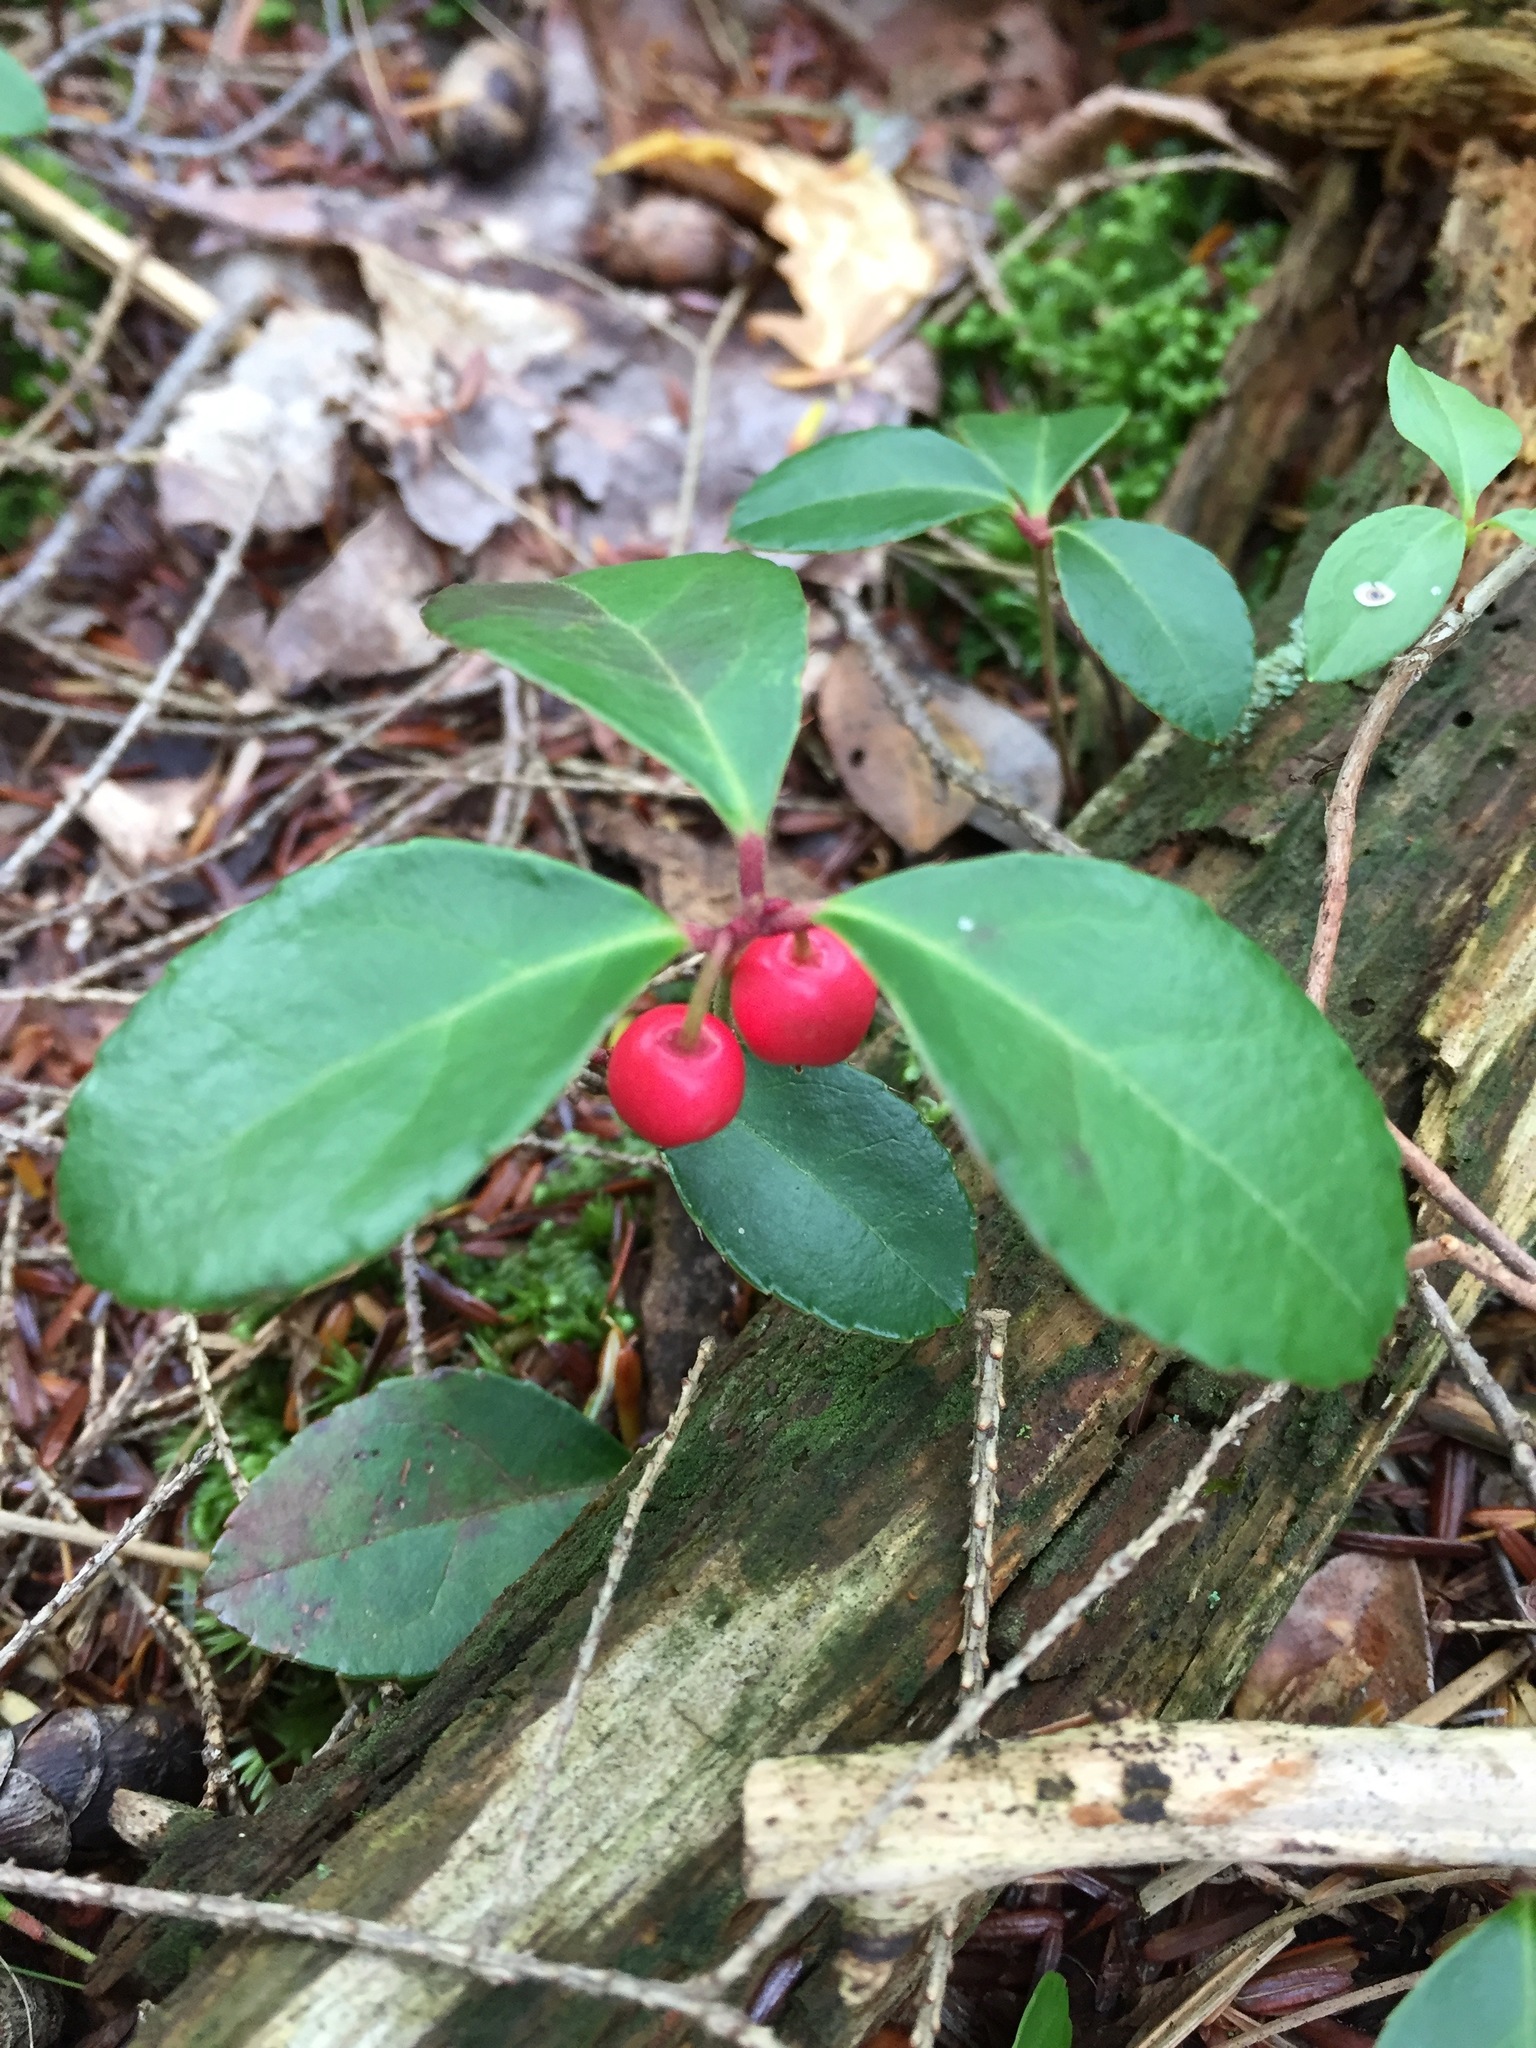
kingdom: Plantae
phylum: Tracheophyta
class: Magnoliopsida
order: Ericales
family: Ericaceae
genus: Gaultheria
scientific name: Gaultheria procumbens
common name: Checkerberry
